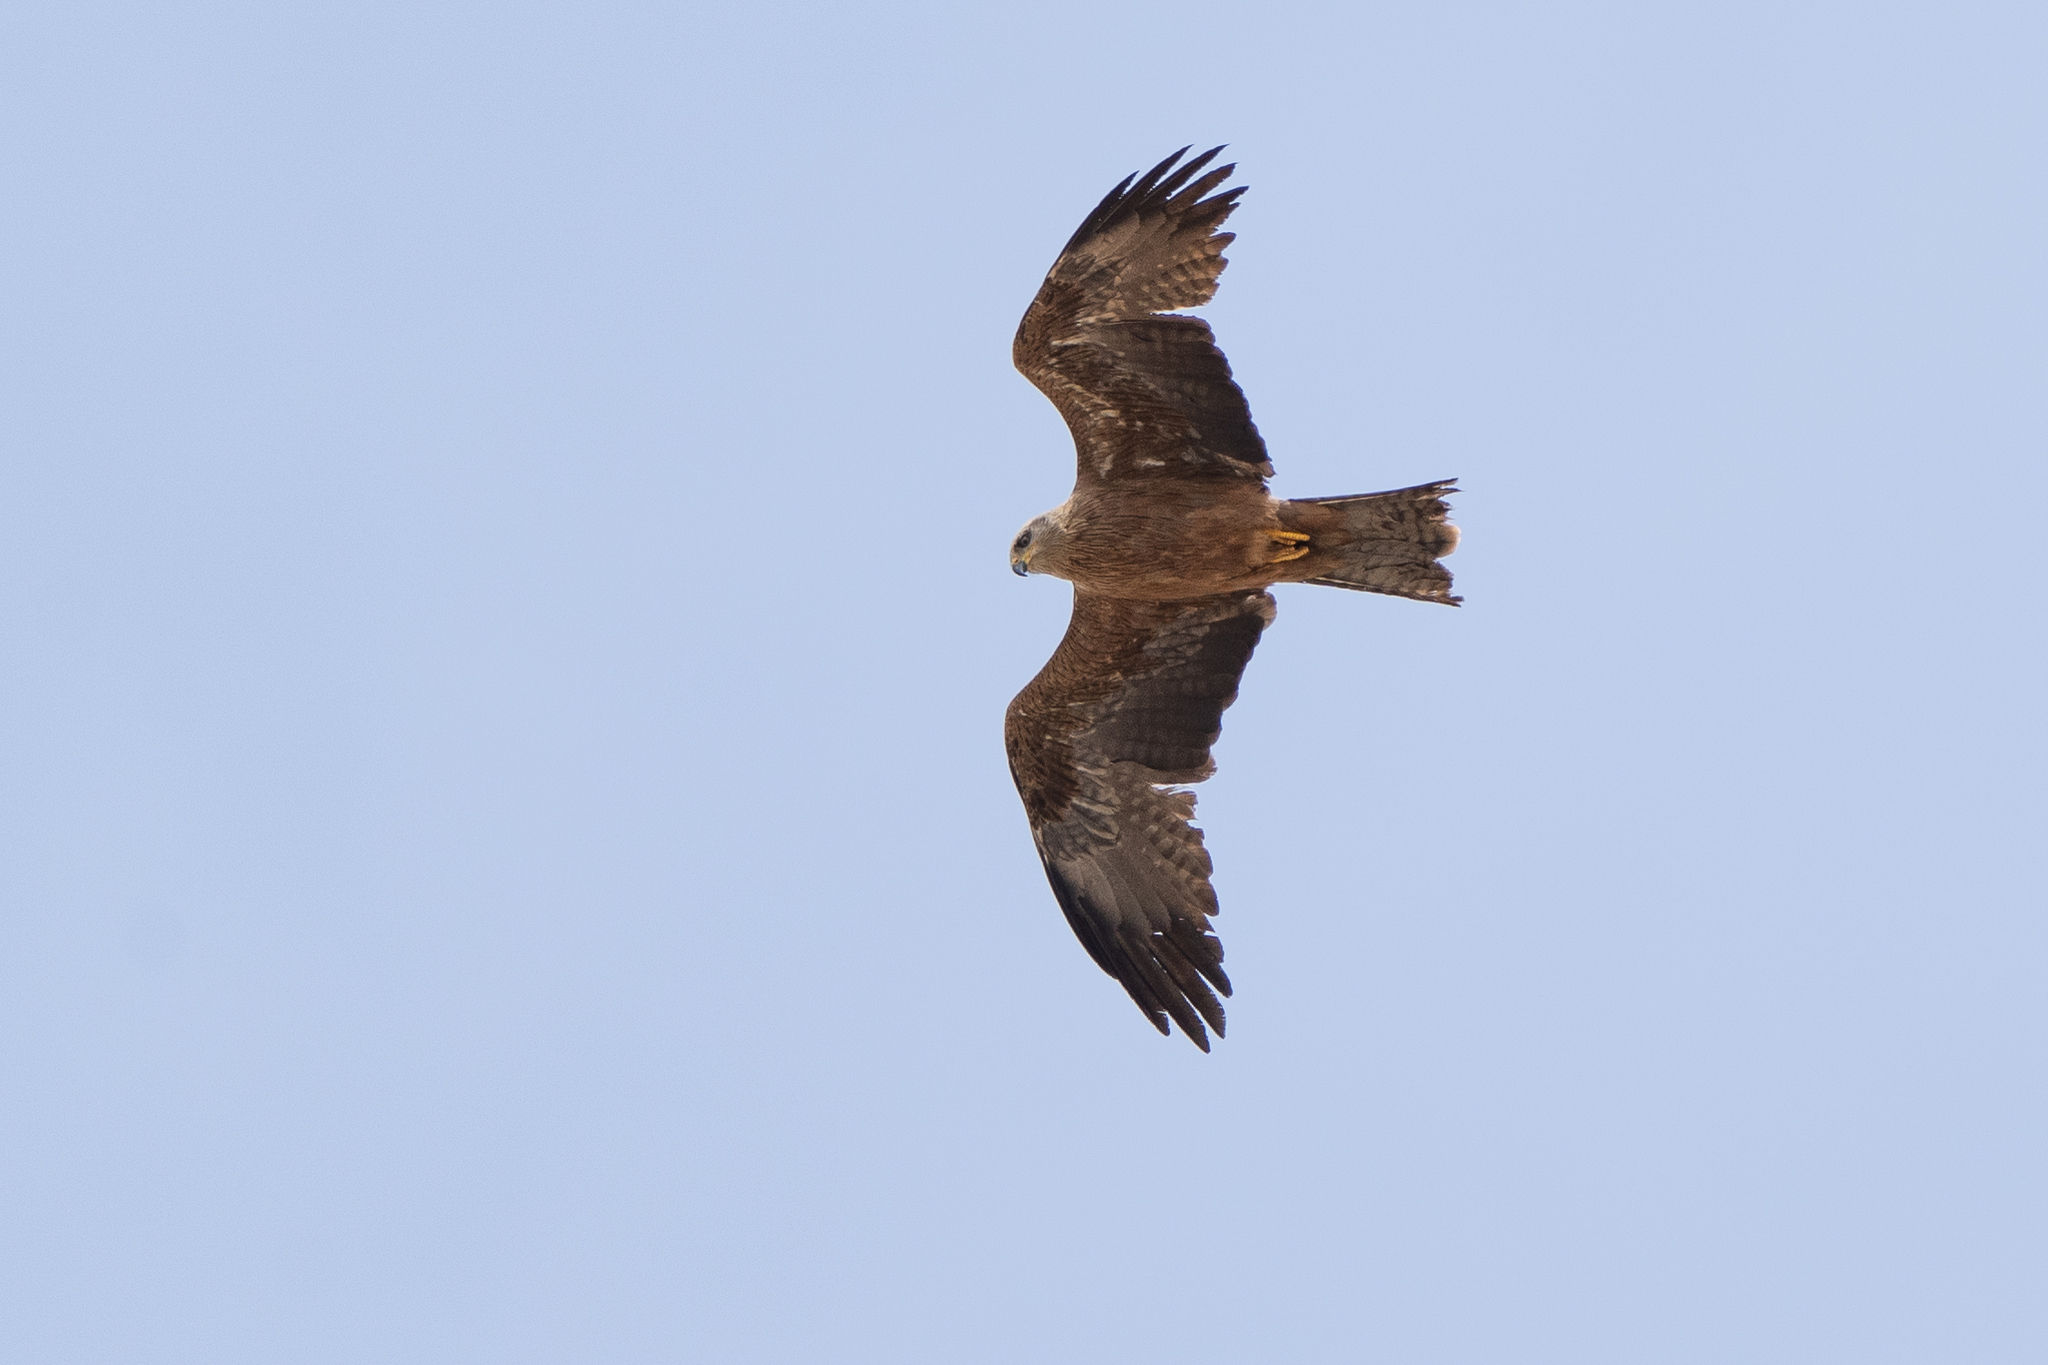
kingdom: Animalia
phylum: Chordata
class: Aves
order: Accipitriformes
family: Accipitridae
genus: Milvus
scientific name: Milvus migrans
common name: Black kite
